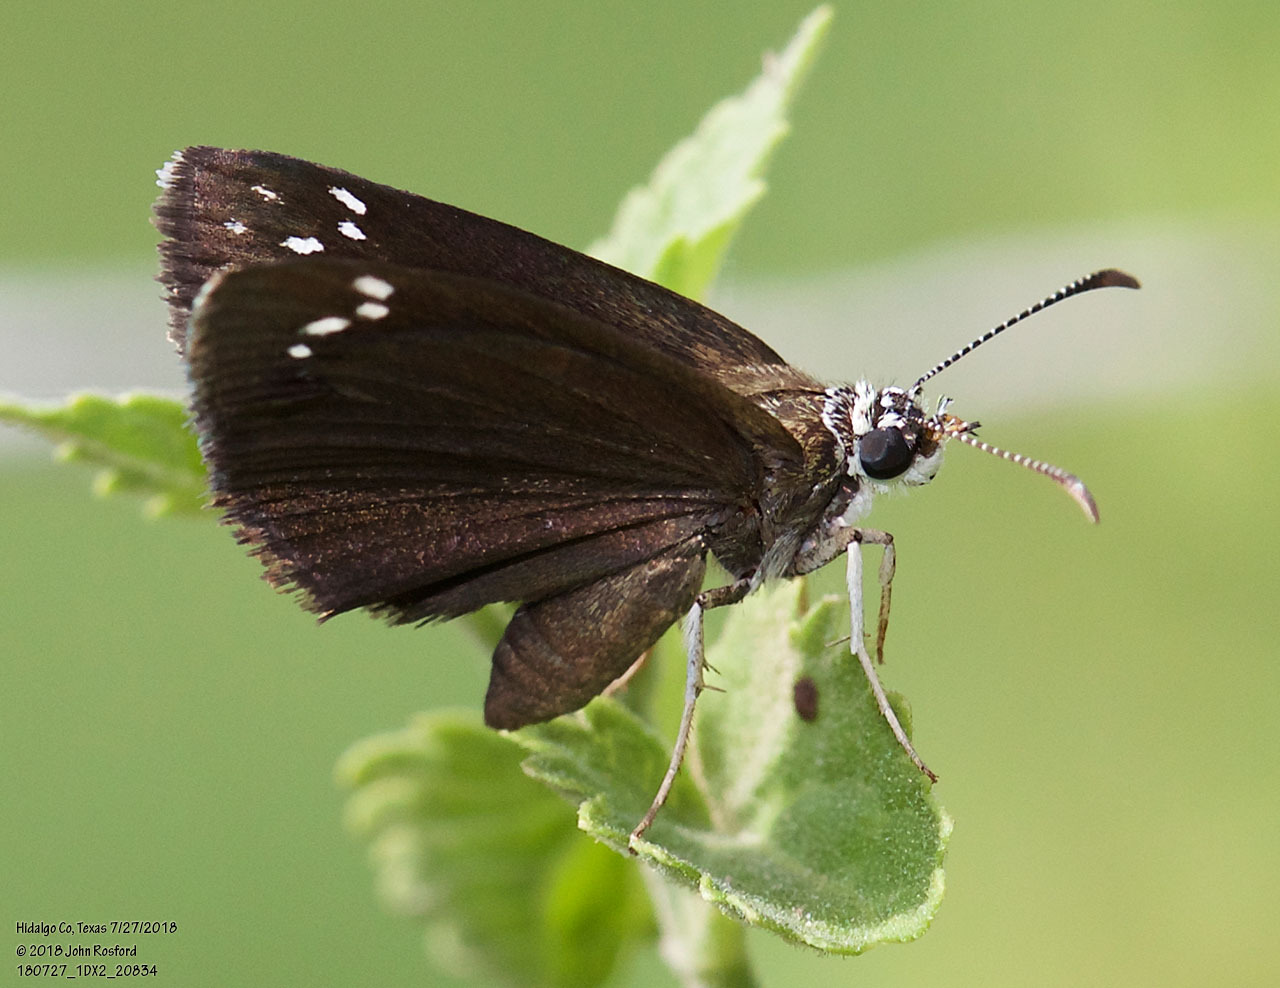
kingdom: Animalia
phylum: Arthropoda
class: Insecta
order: Lepidoptera
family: Hesperiidae
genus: Pholisora
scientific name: Pholisora catullus
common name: Common sootywing
